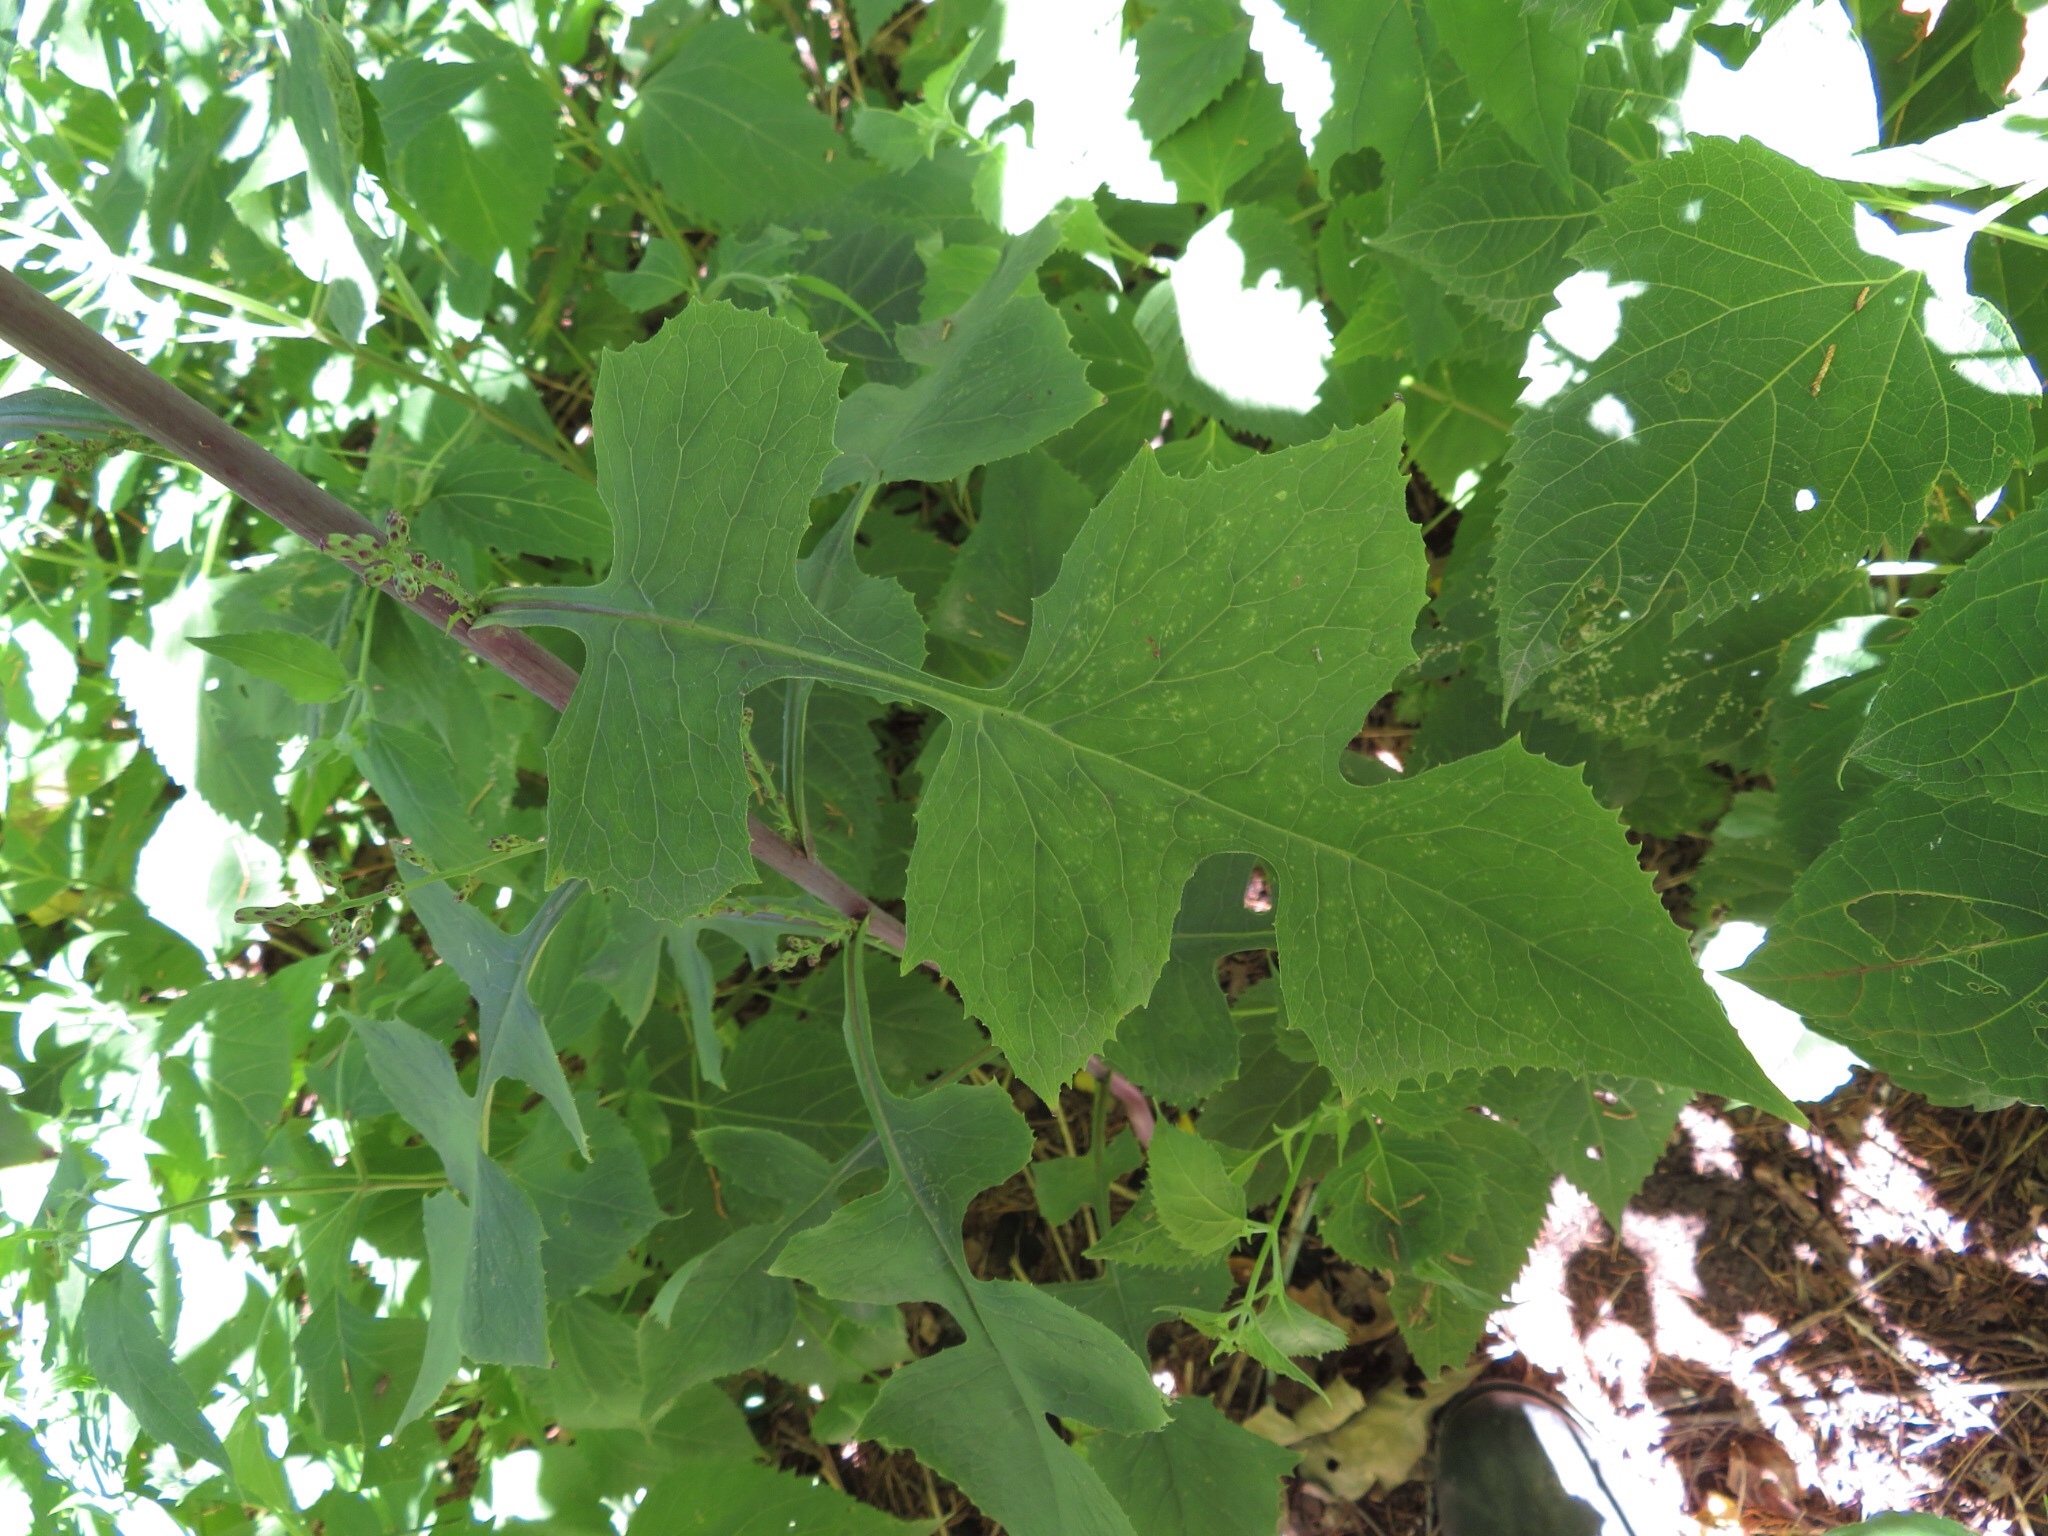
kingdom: Plantae
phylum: Tracheophyta
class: Magnoliopsida
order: Asterales
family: Asteraceae
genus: Lactuca
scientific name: Lactuca floridana
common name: Woodland lettuce
